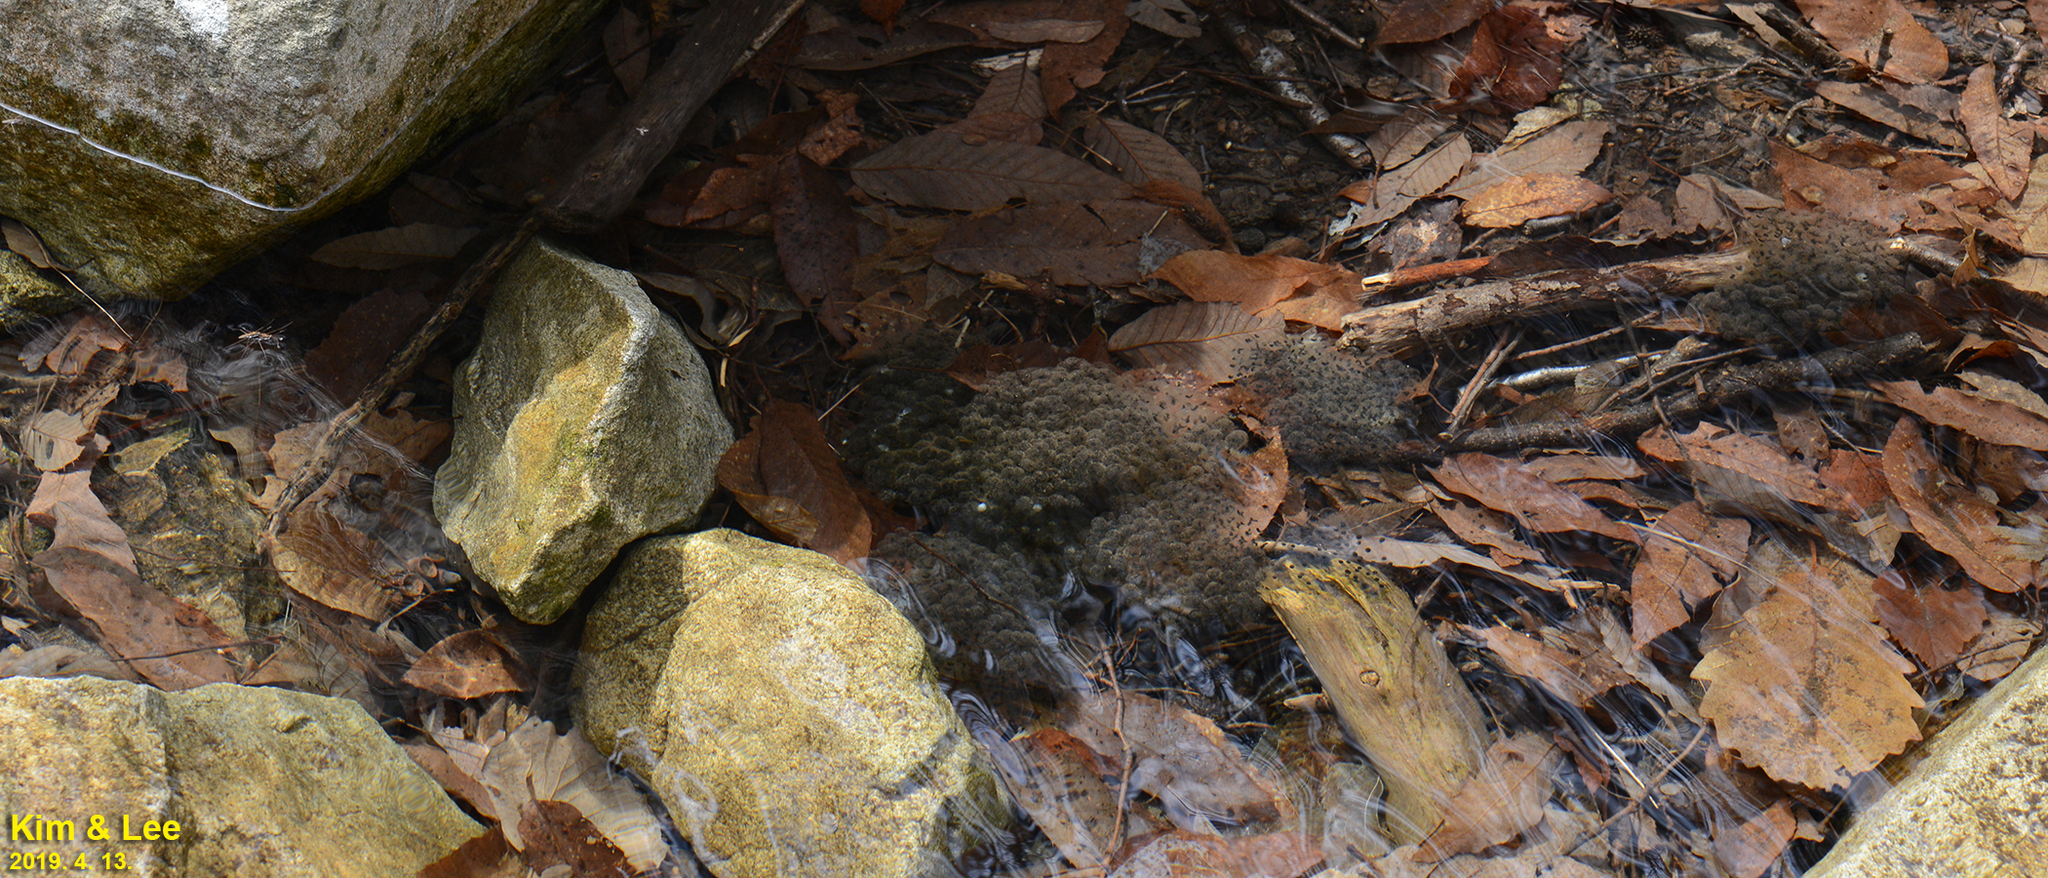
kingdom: Animalia
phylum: Chordata
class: Amphibia
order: Anura
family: Ranidae
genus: Rana
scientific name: Rana huanrenensis
